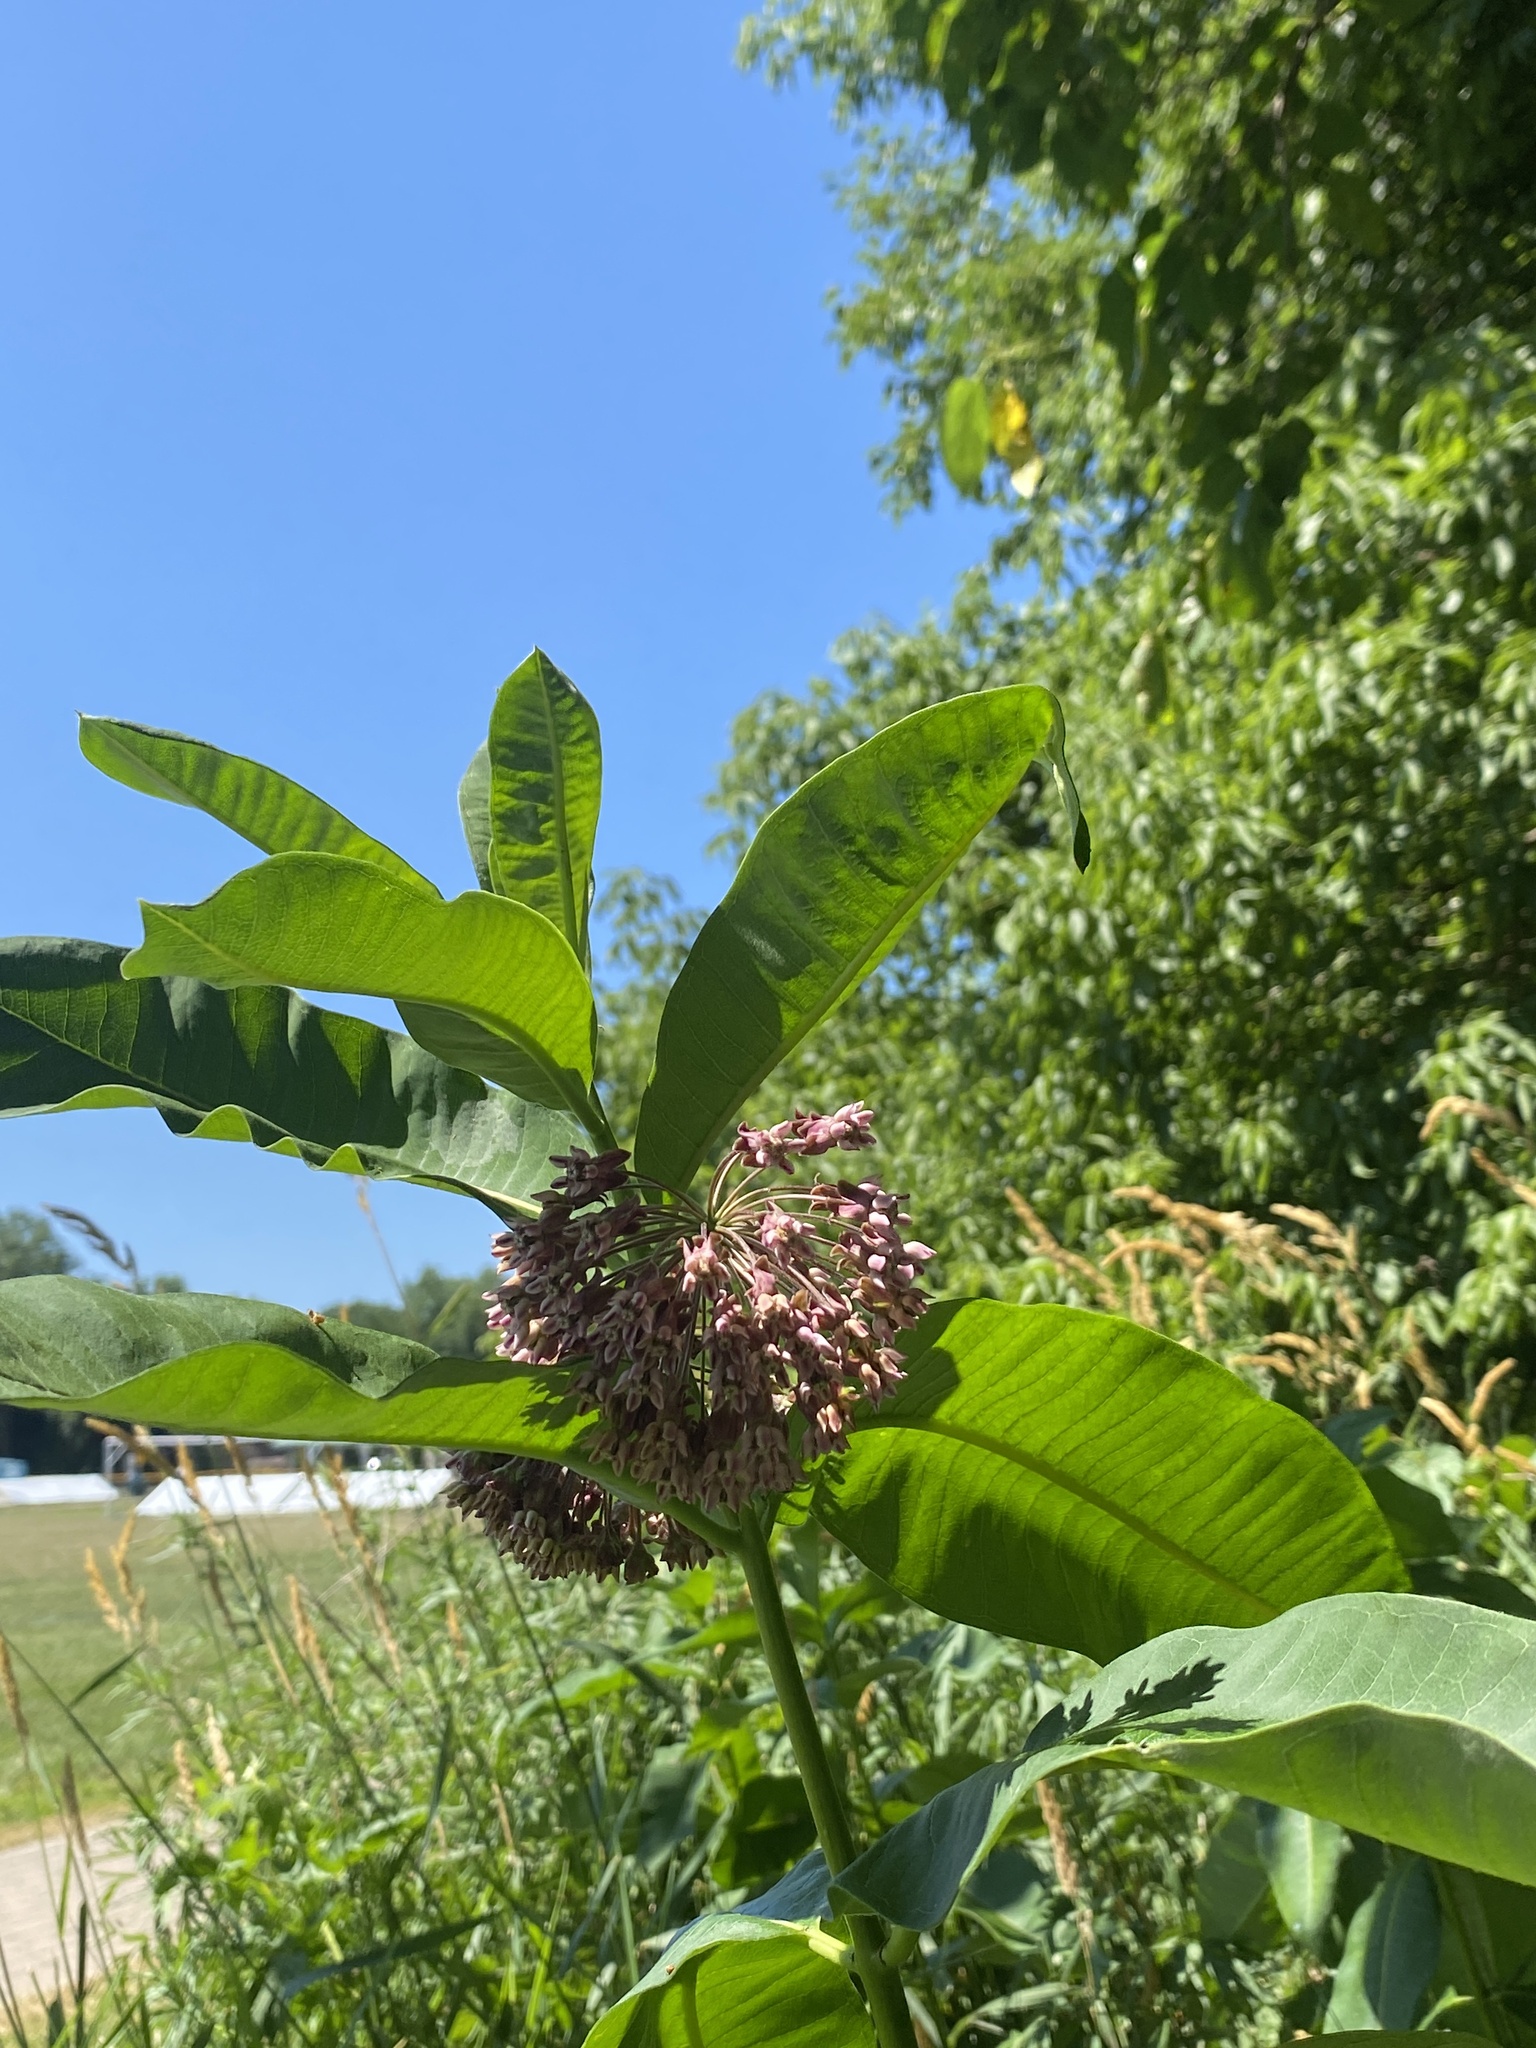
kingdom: Plantae
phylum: Tracheophyta
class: Magnoliopsida
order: Gentianales
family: Apocynaceae
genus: Asclepias
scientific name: Asclepias syriaca
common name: Common milkweed
